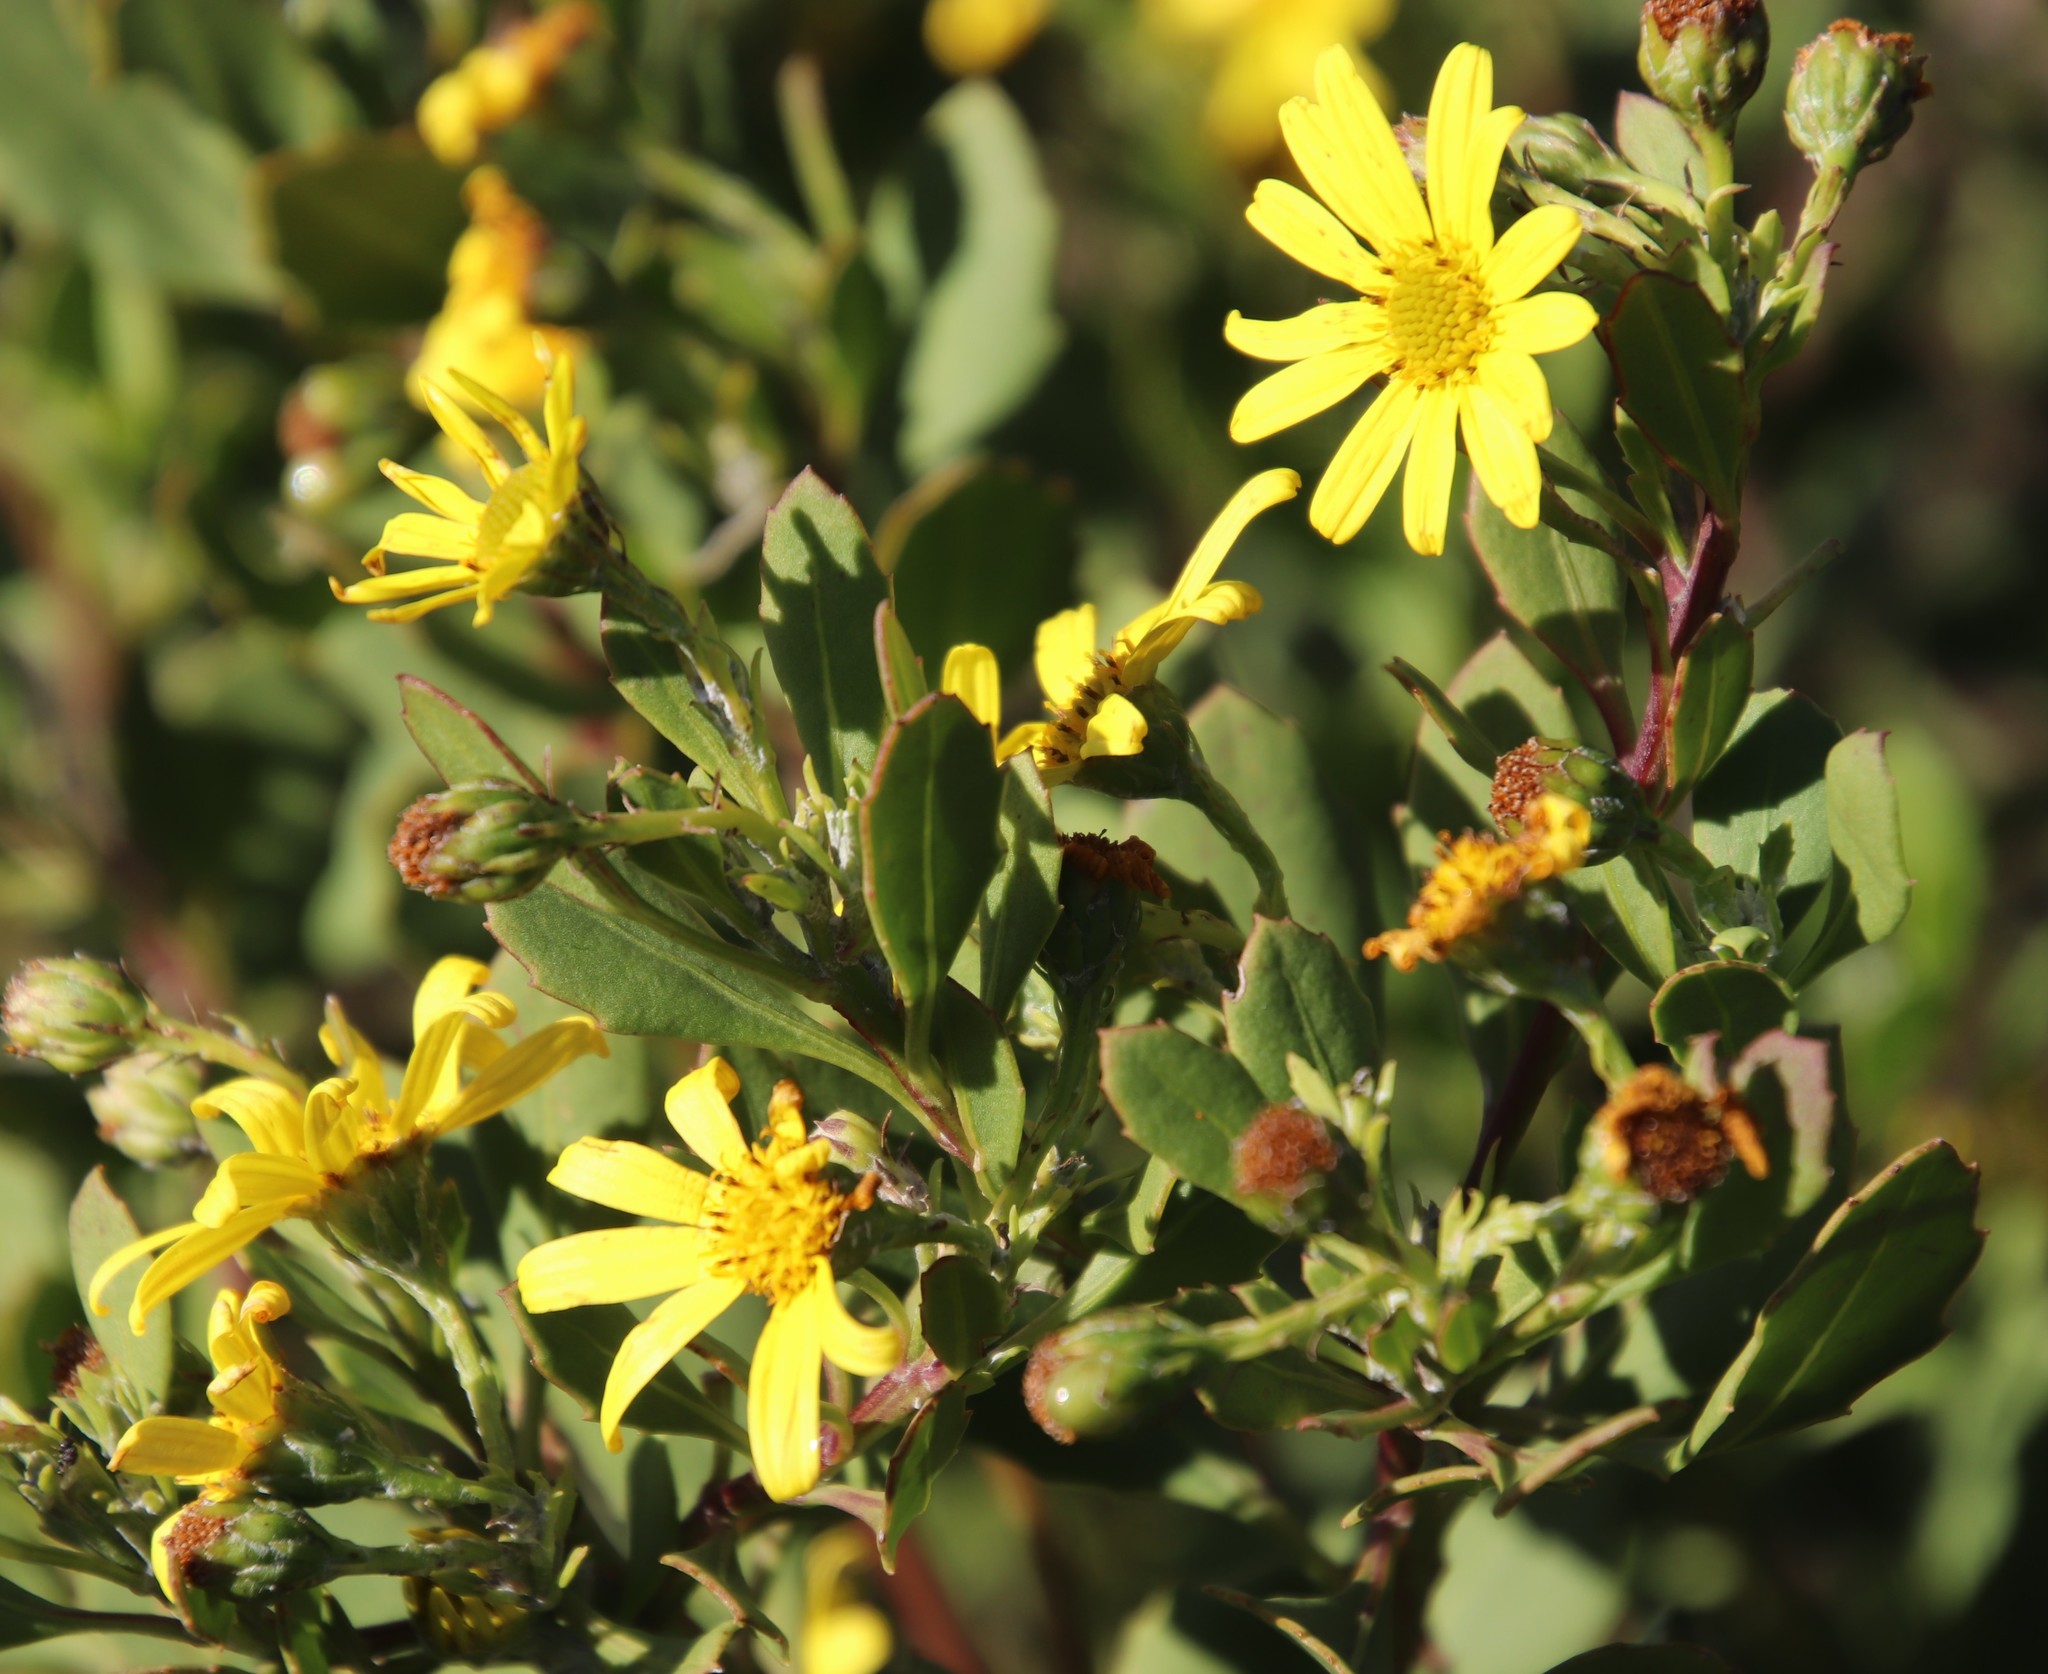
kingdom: Plantae
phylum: Tracheophyta
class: Magnoliopsida
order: Asterales
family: Asteraceae
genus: Osteospermum
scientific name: Osteospermum moniliferum
